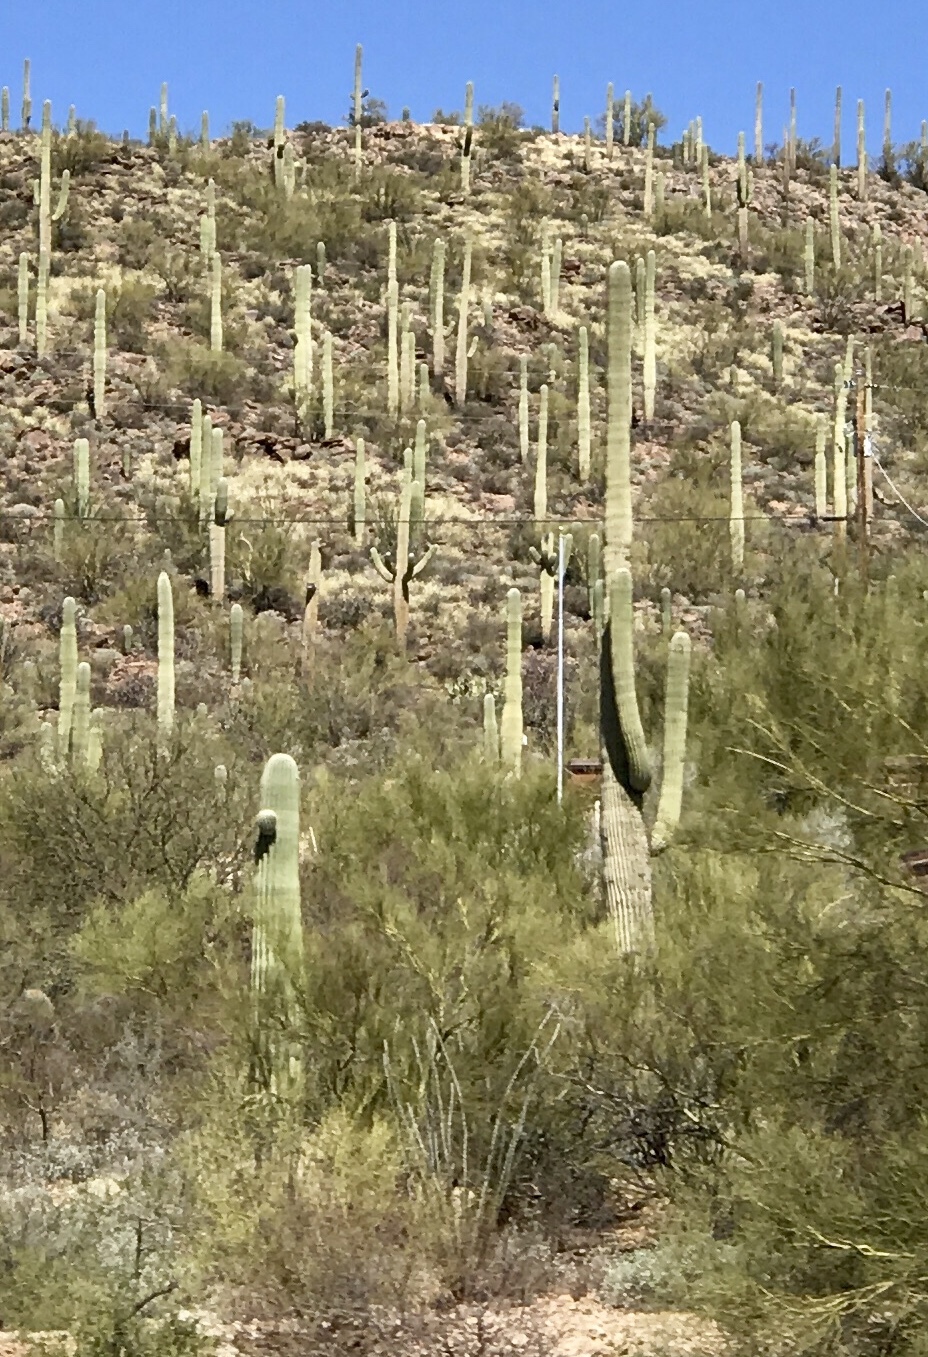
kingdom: Plantae
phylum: Tracheophyta
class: Magnoliopsida
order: Caryophyllales
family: Cactaceae
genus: Carnegiea
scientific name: Carnegiea gigantea
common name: Saguaro
